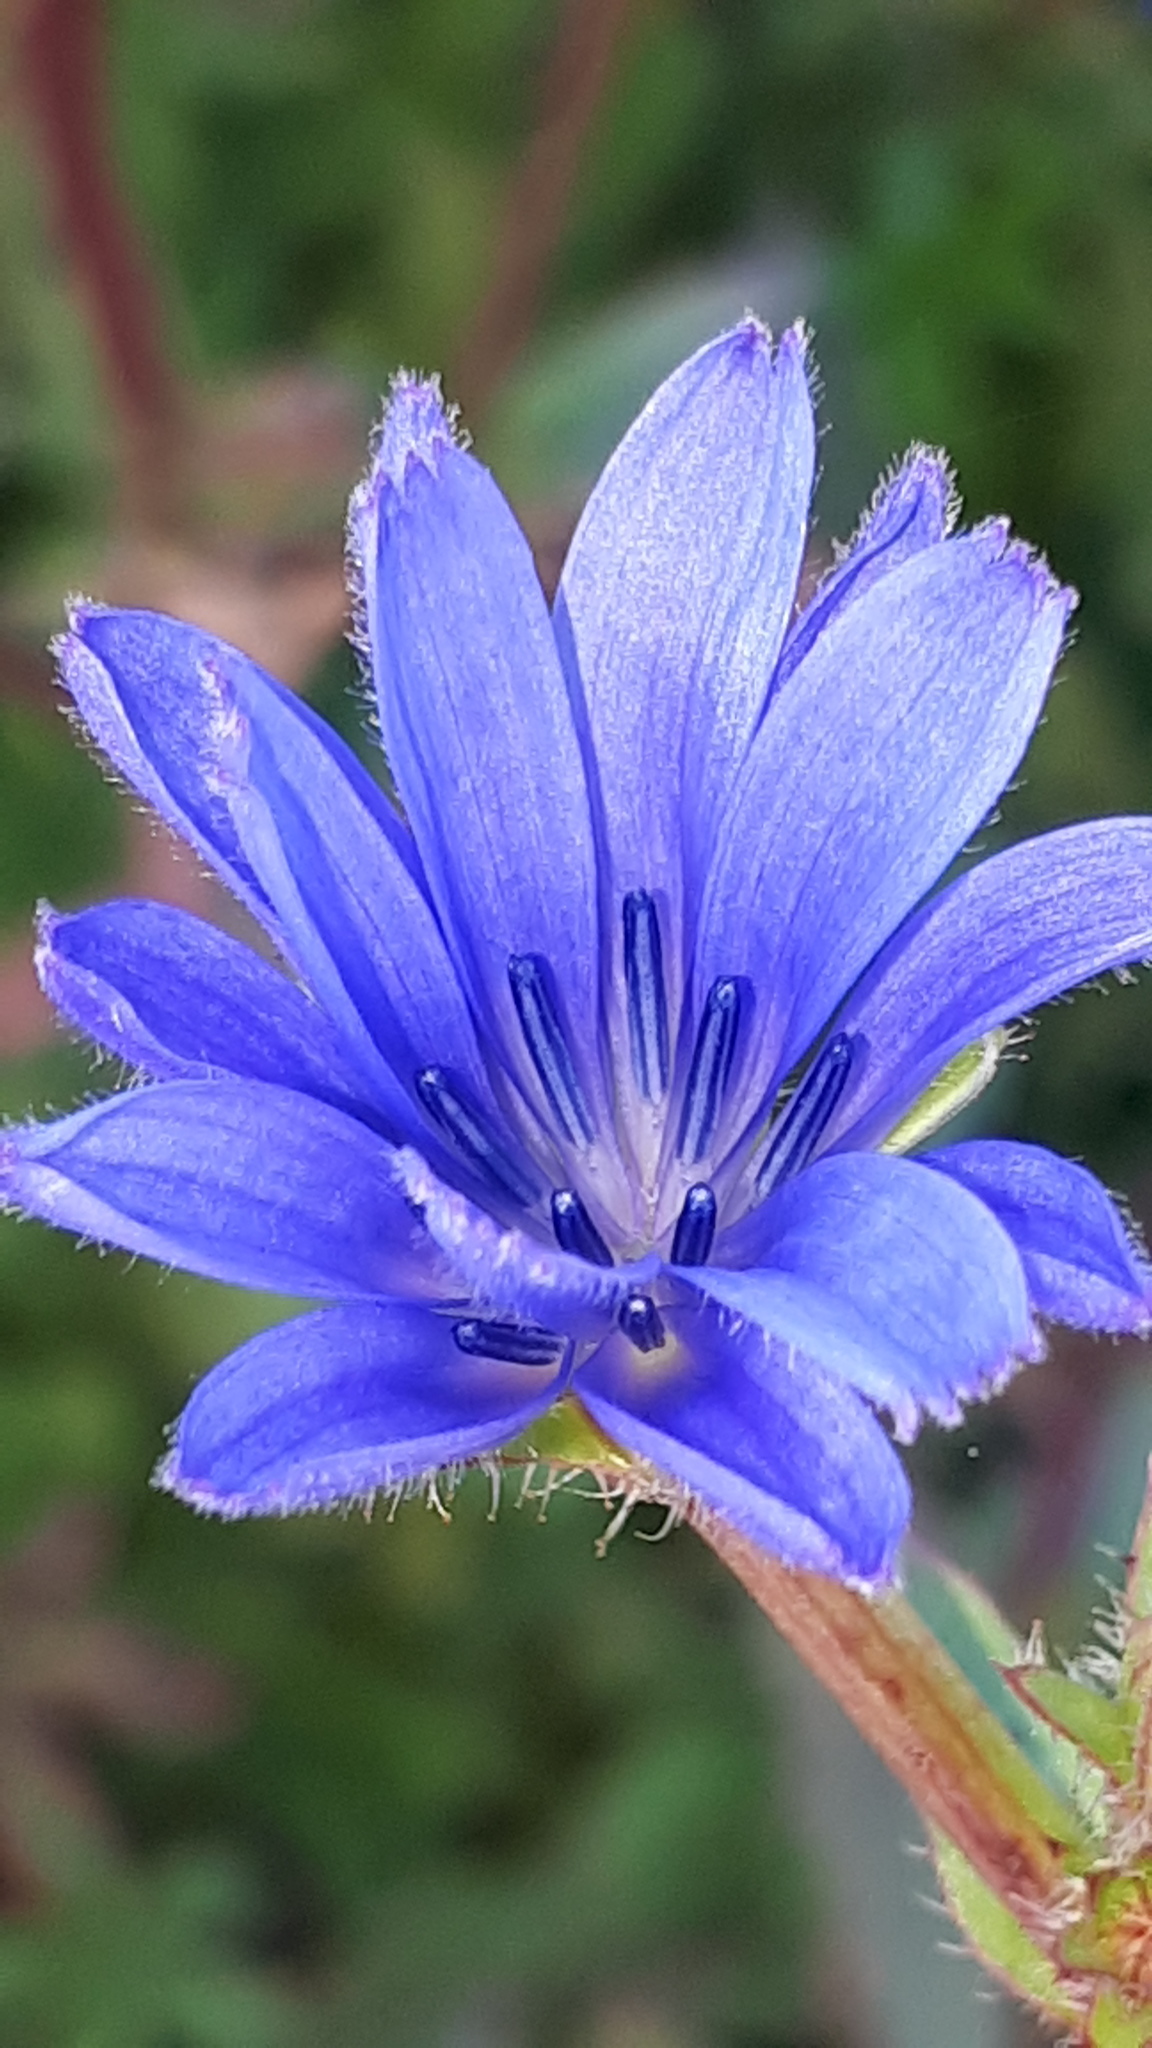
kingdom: Plantae
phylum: Tracheophyta
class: Magnoliopsida
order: Asterales
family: Asteraceae
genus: Cichorium
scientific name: Cichorium intybus
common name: Chicory
